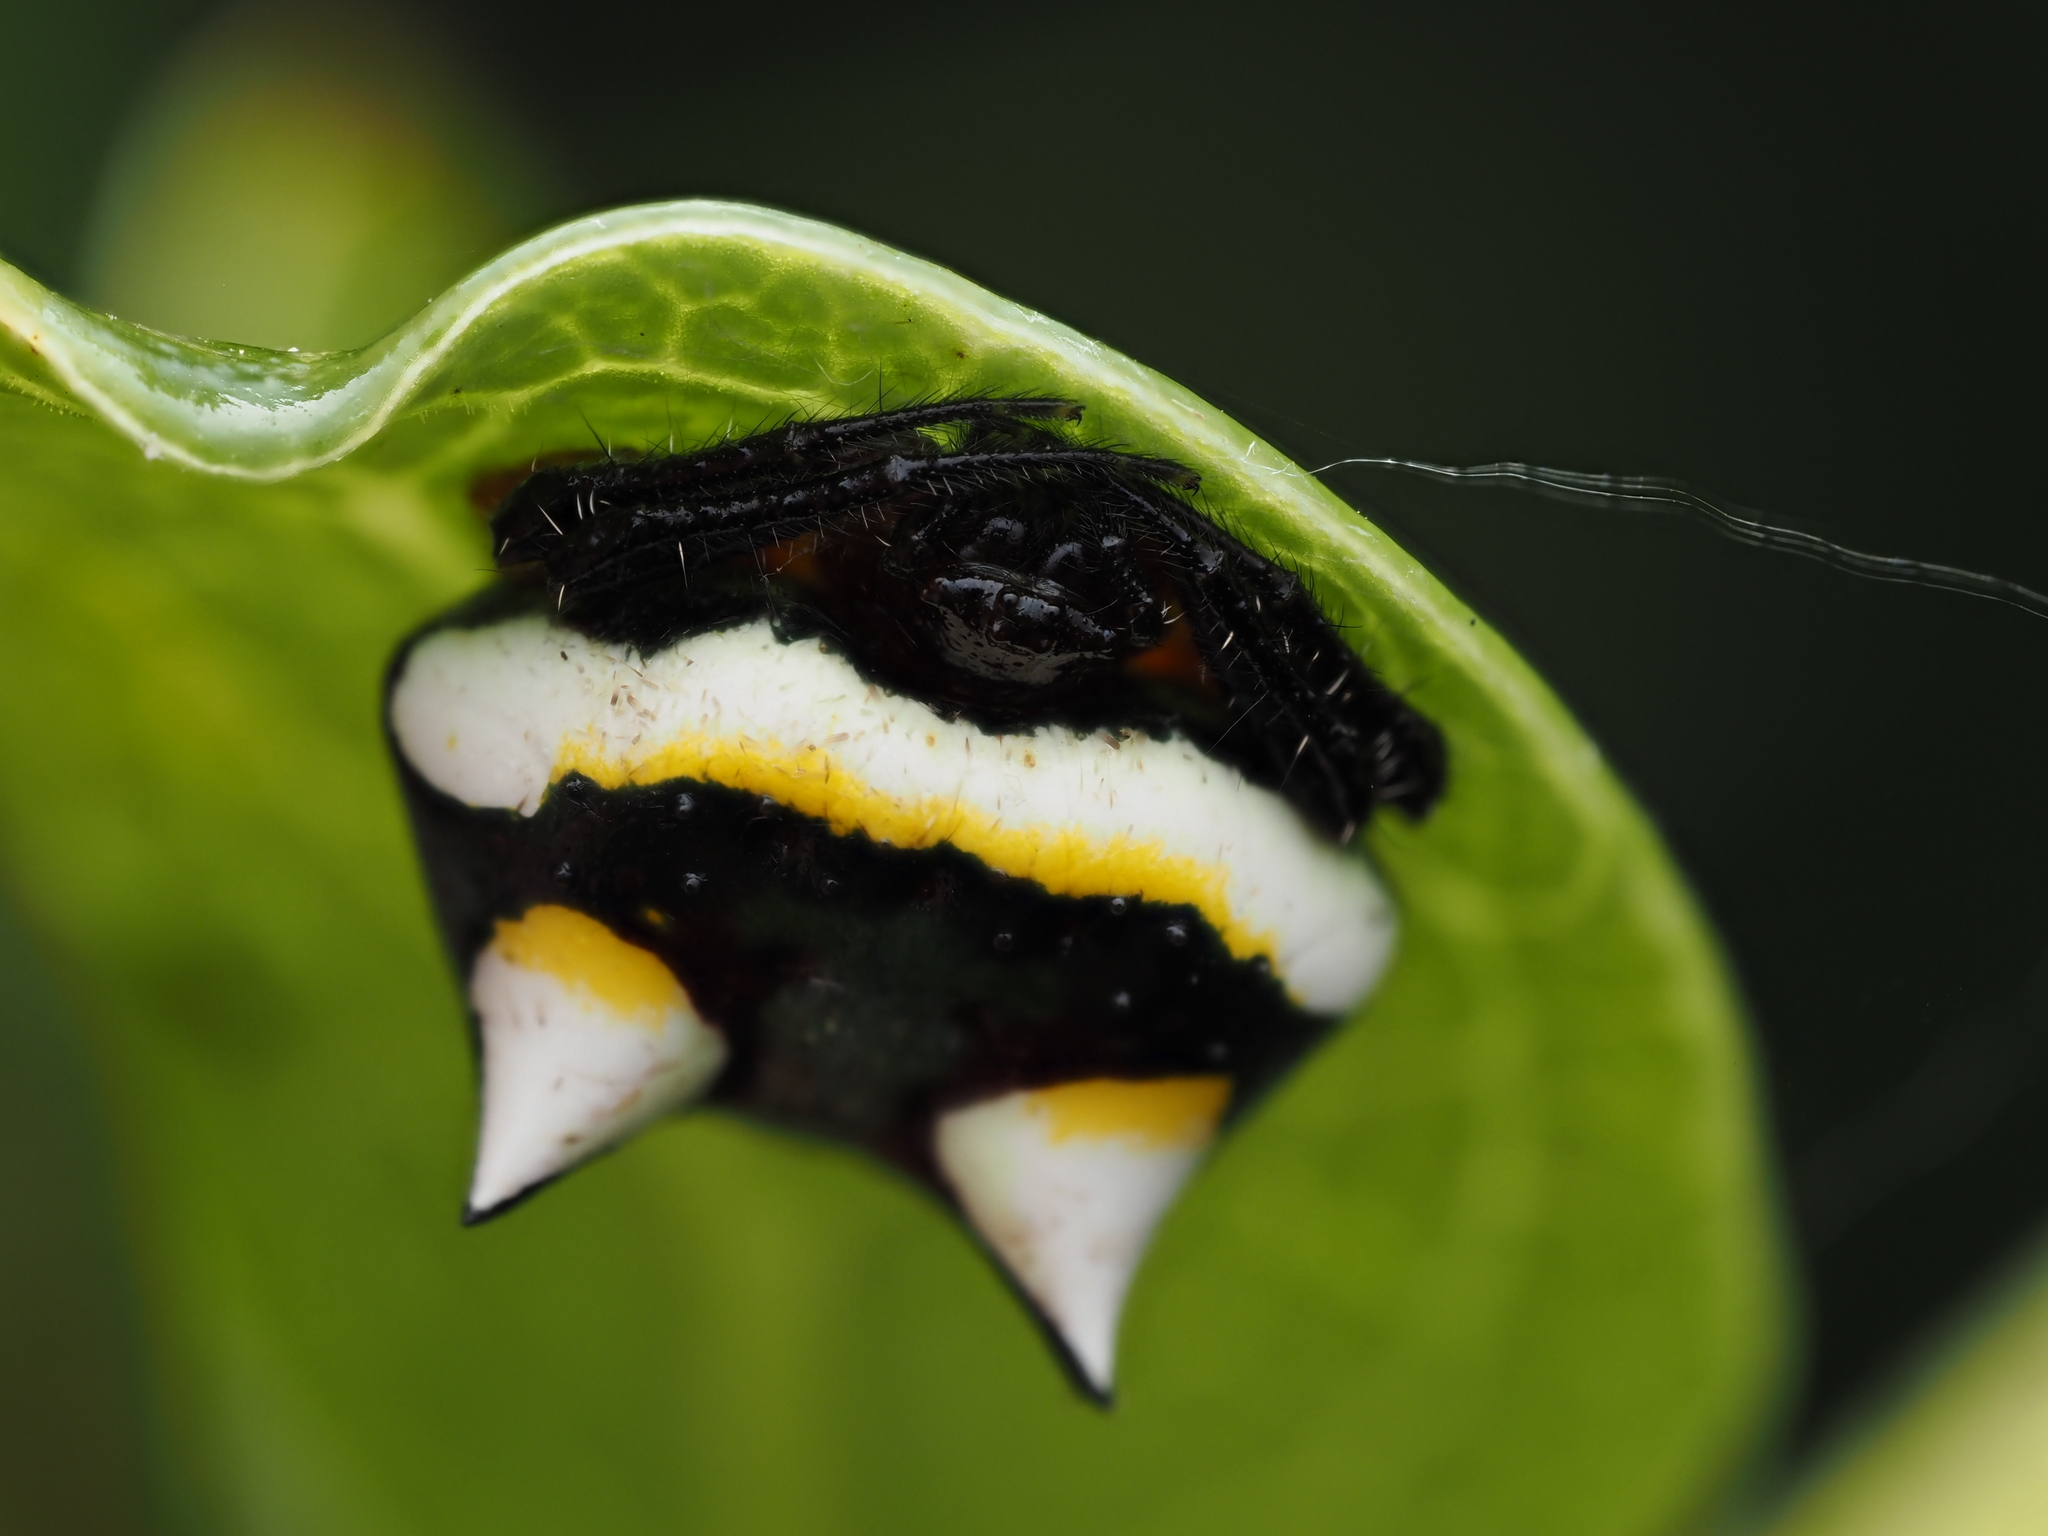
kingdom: Animalia
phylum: Arthropoda
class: Arachnida
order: Araneae
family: Araneidae
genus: Poecilopachys
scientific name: Poecilopachys australasia
